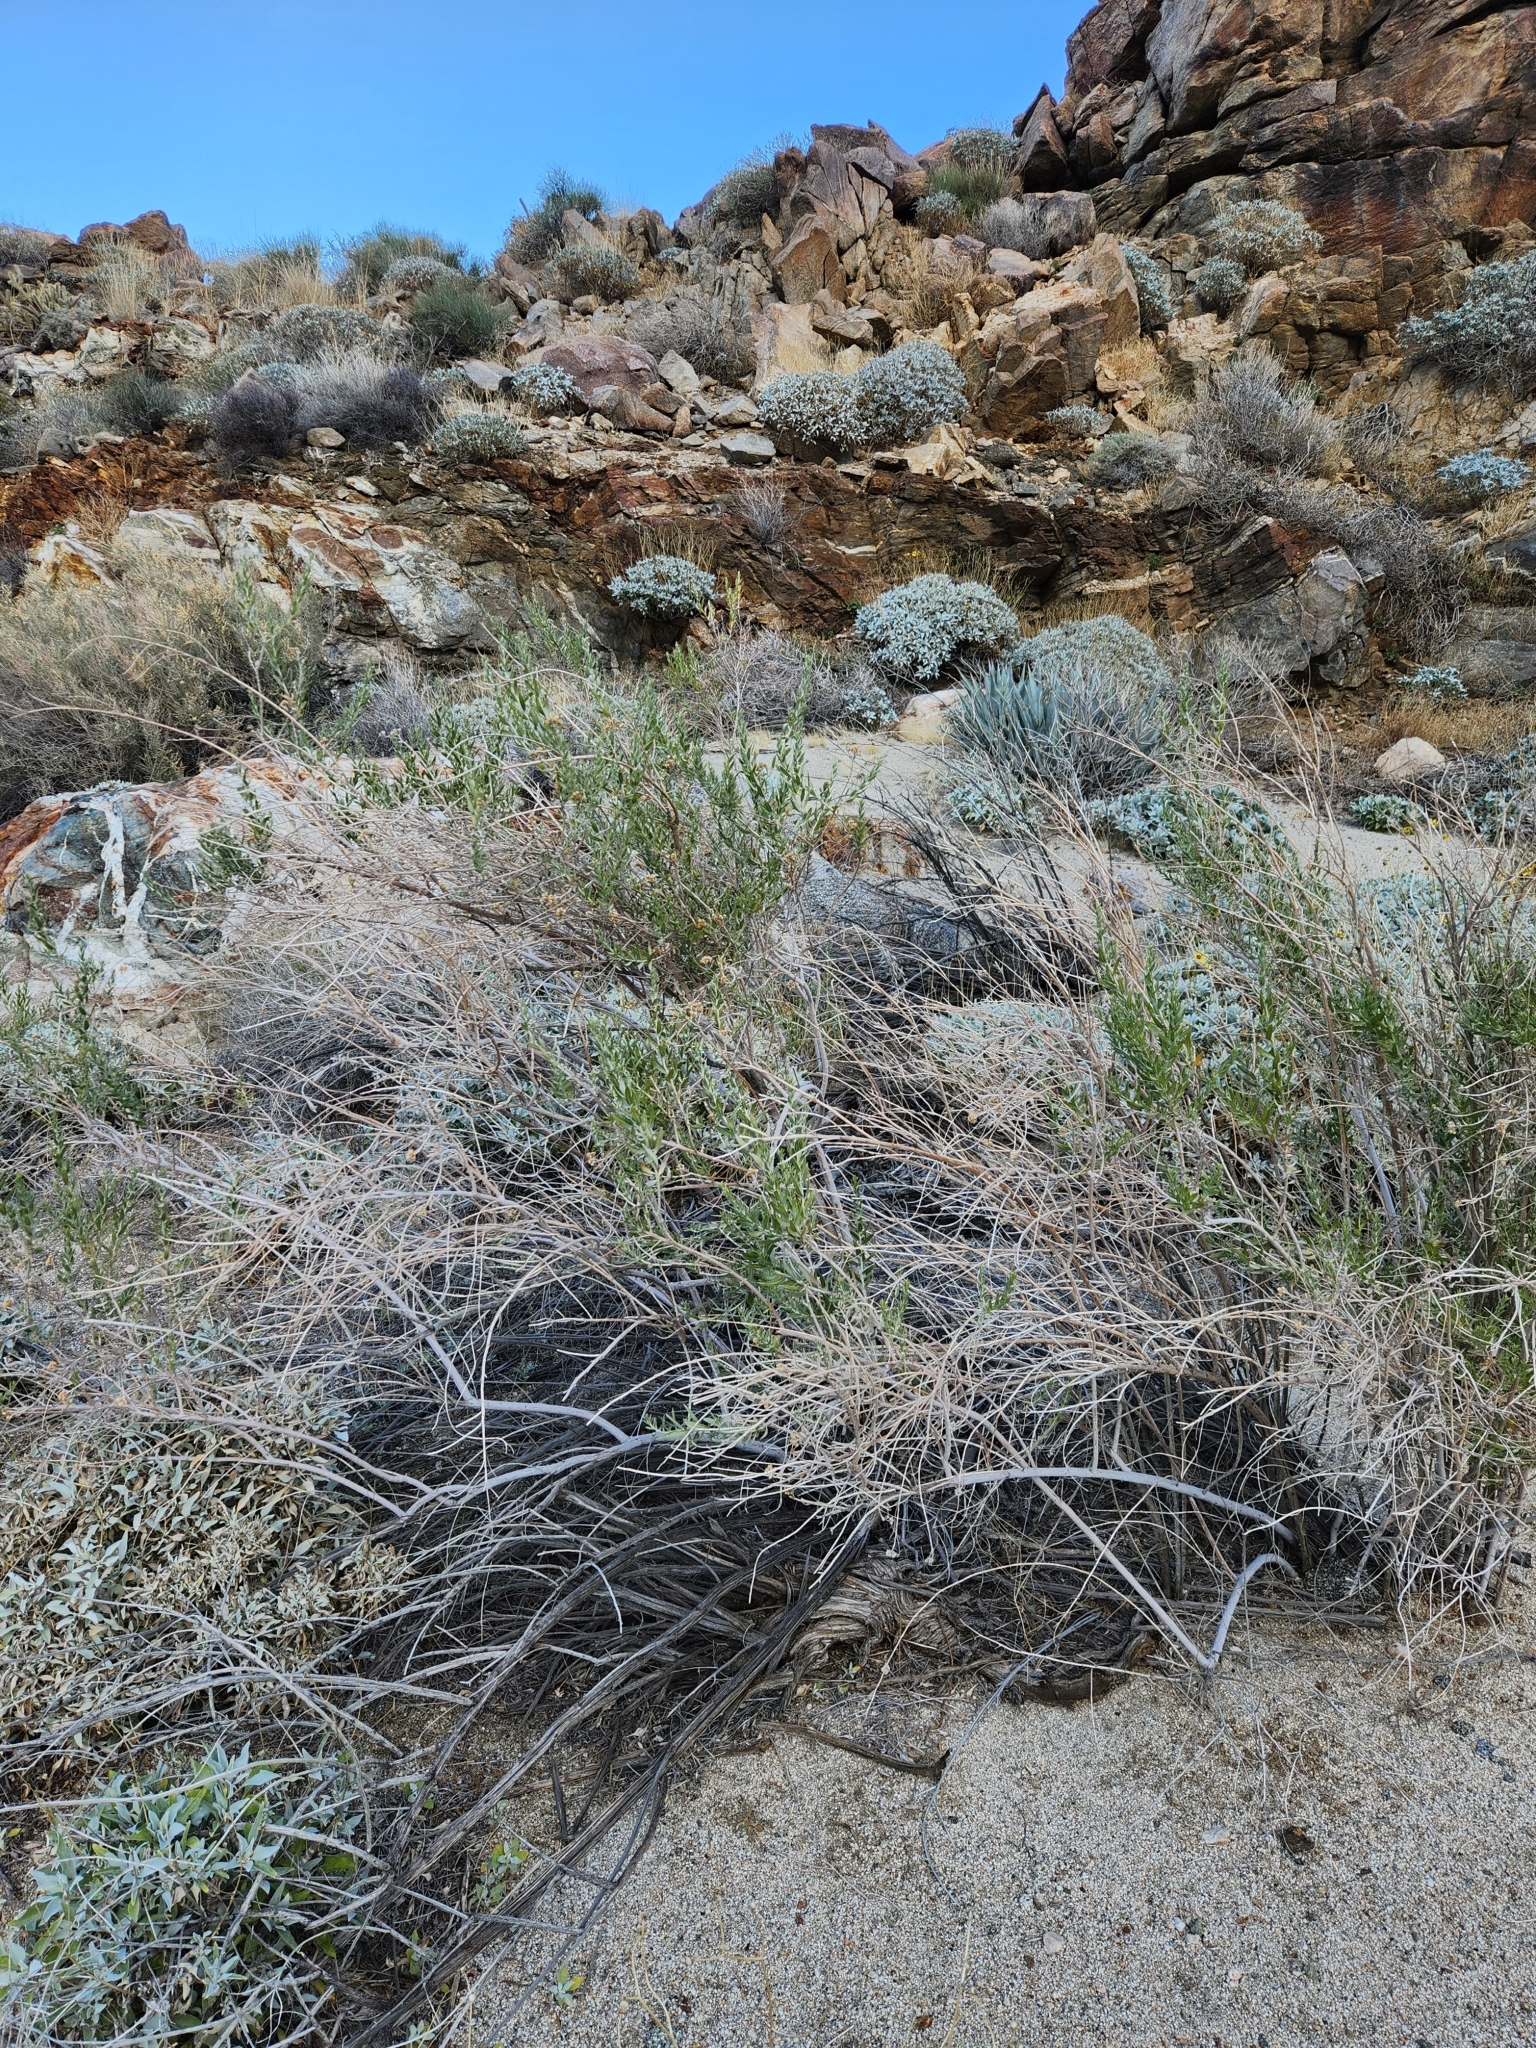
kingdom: Plantae
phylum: Tracheophyta
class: Magnoliopsida
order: Asterales
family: Asteraceae
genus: Pluchea
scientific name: Pluchea sericea
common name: Arrow-weed
